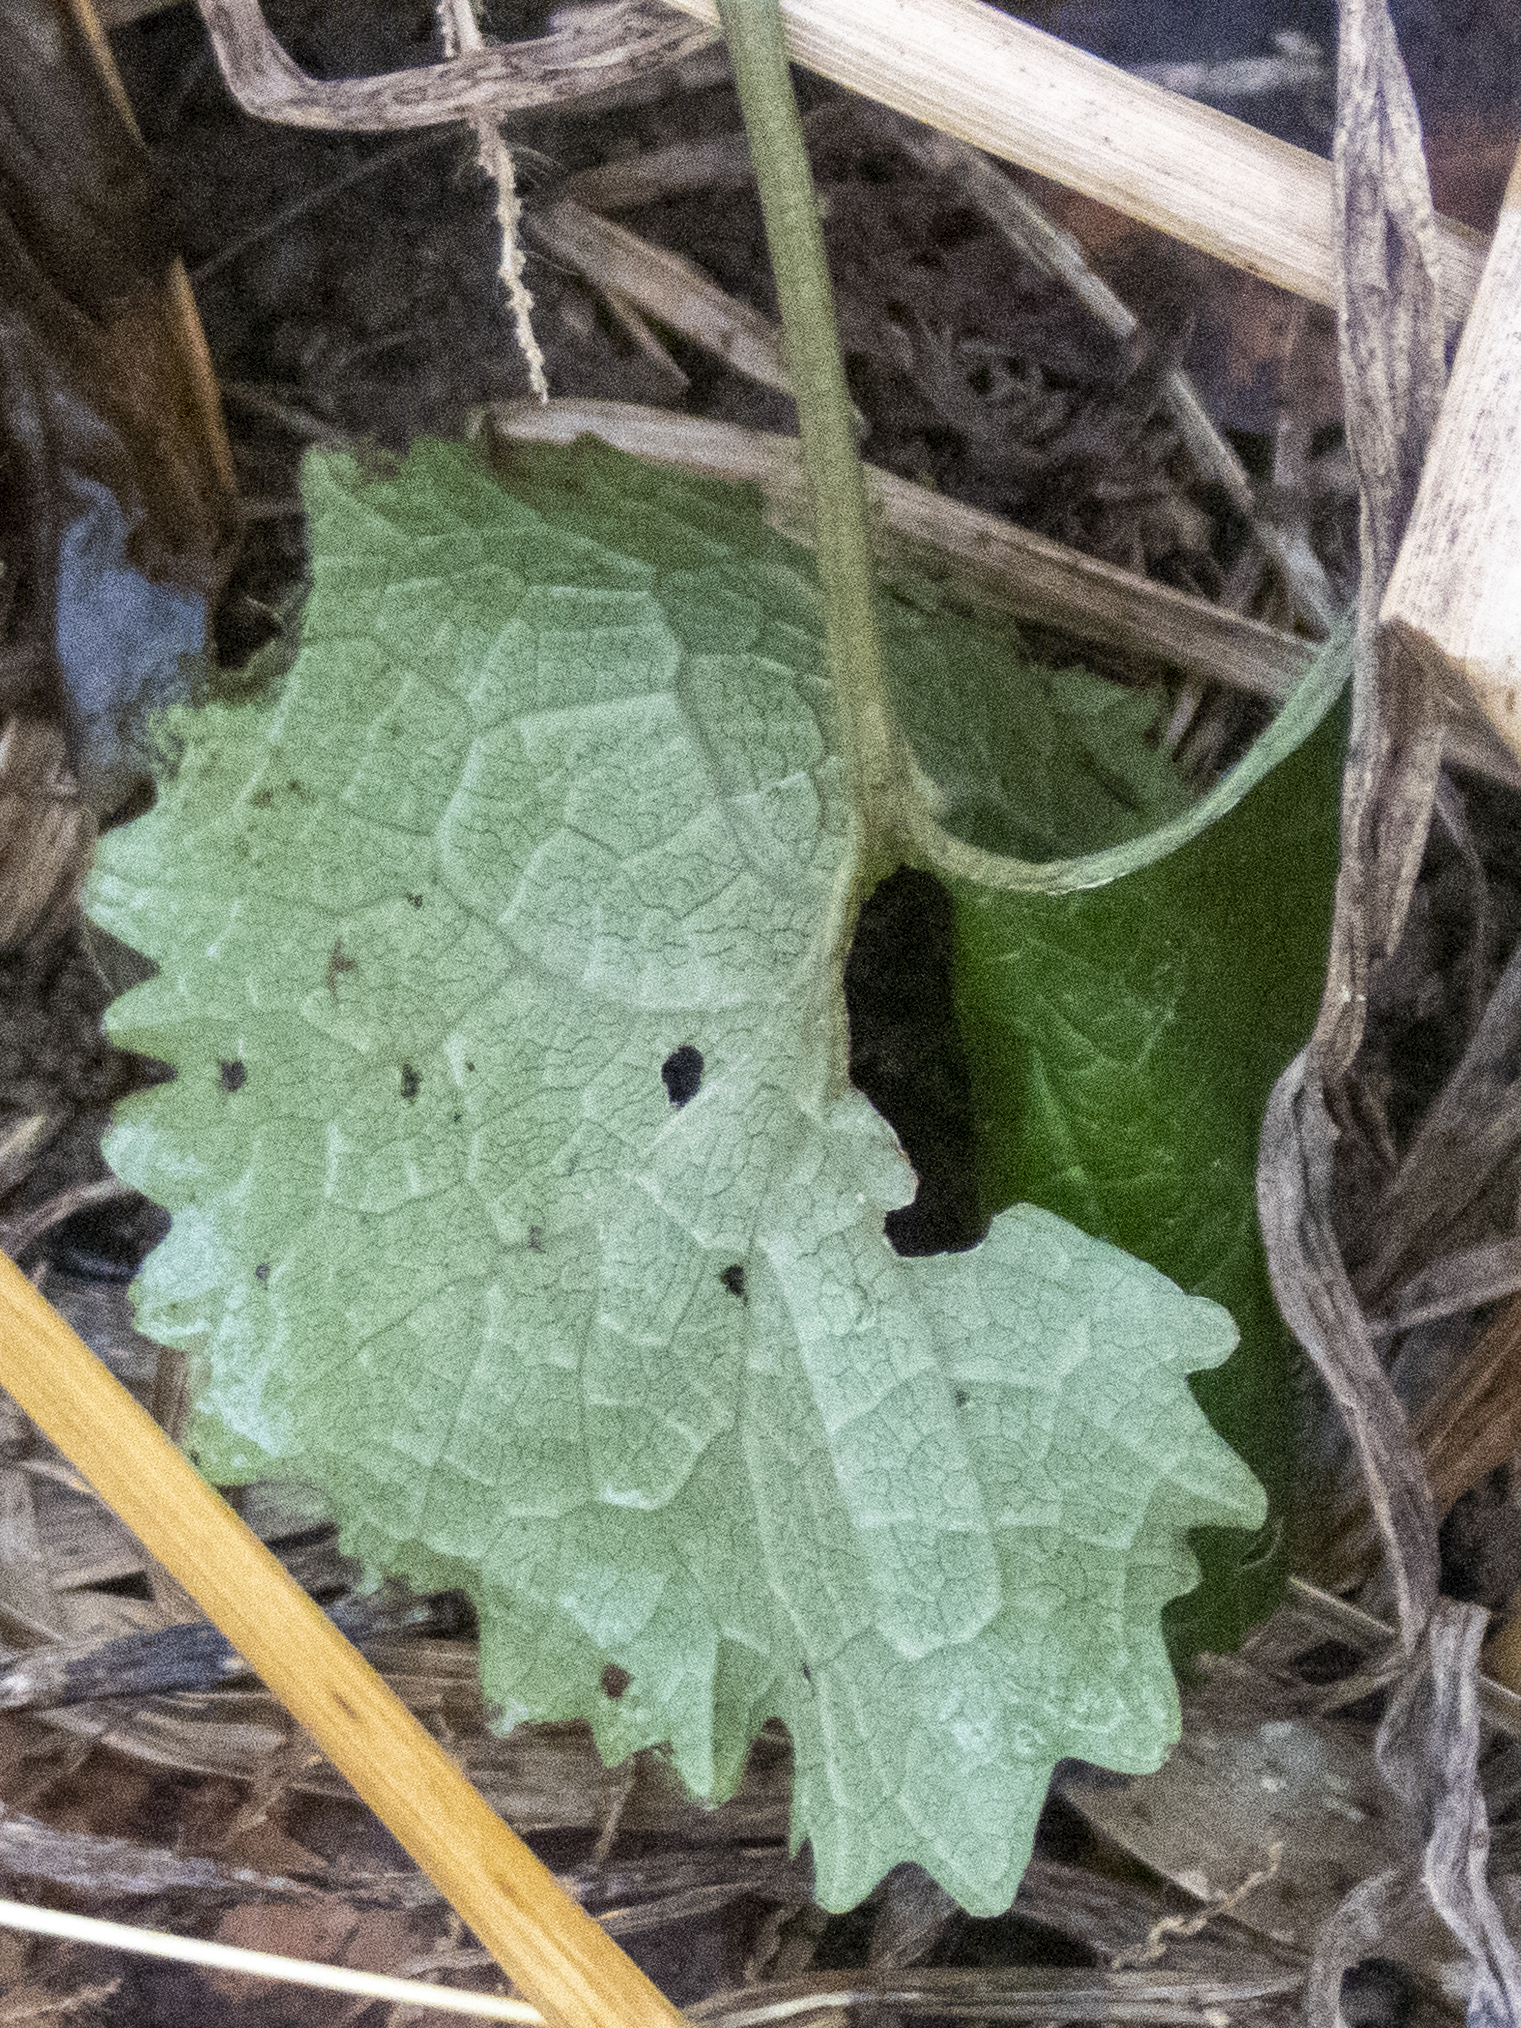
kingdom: Plantae
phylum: Tracheophyta
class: Magnoliopsida
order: Brassicales
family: Brassicaceae
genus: Alliaria
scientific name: Alliaria petiolata
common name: Garlic mustard
